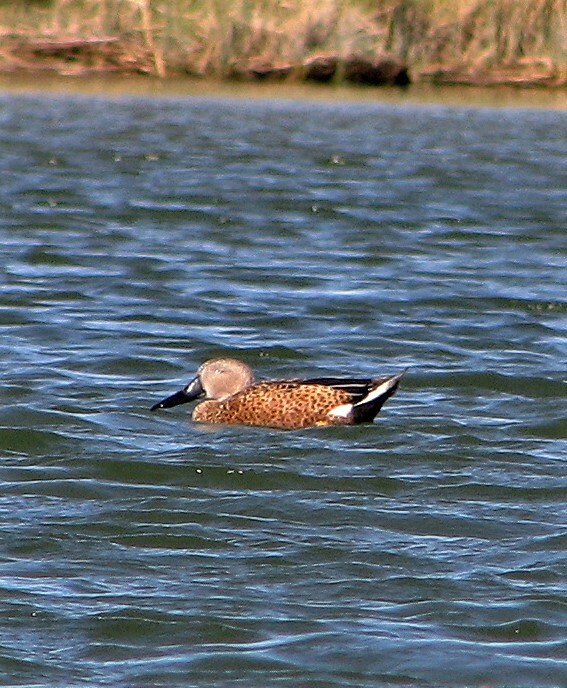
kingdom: Animalia
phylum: Chordata
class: Aves
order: Anseriformes
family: Anatidae
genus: Spatula
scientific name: Spatula platalea
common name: Red shoveler
